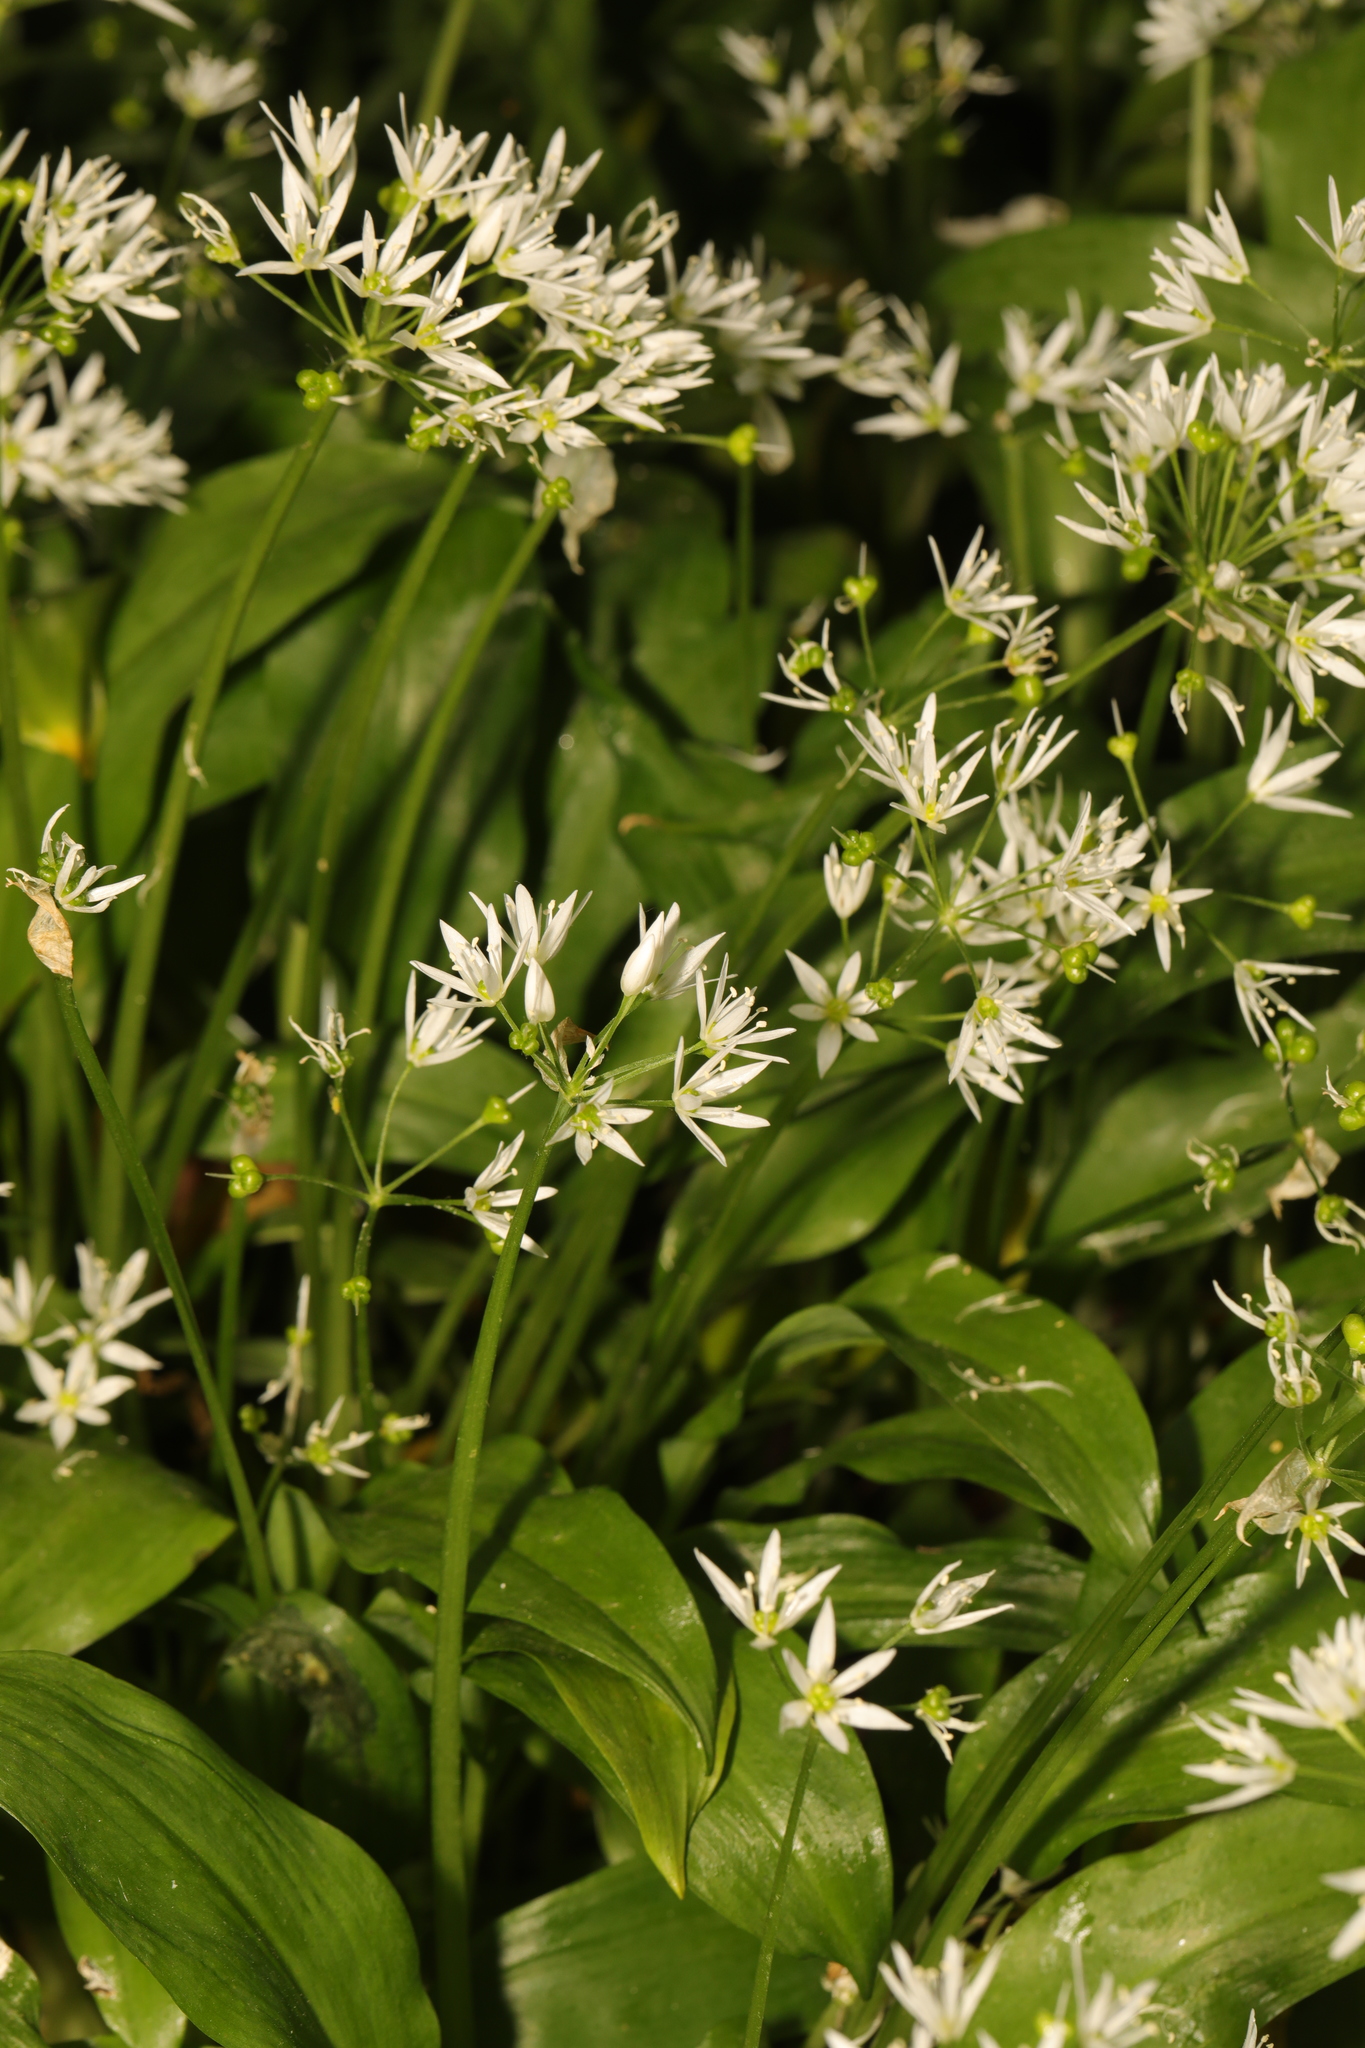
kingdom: Plantae
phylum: Tracheophyta
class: Liliopsida
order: Asparagales
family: Amaryllidaceae
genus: Allium
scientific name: Allium ursinum
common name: Ramsons
